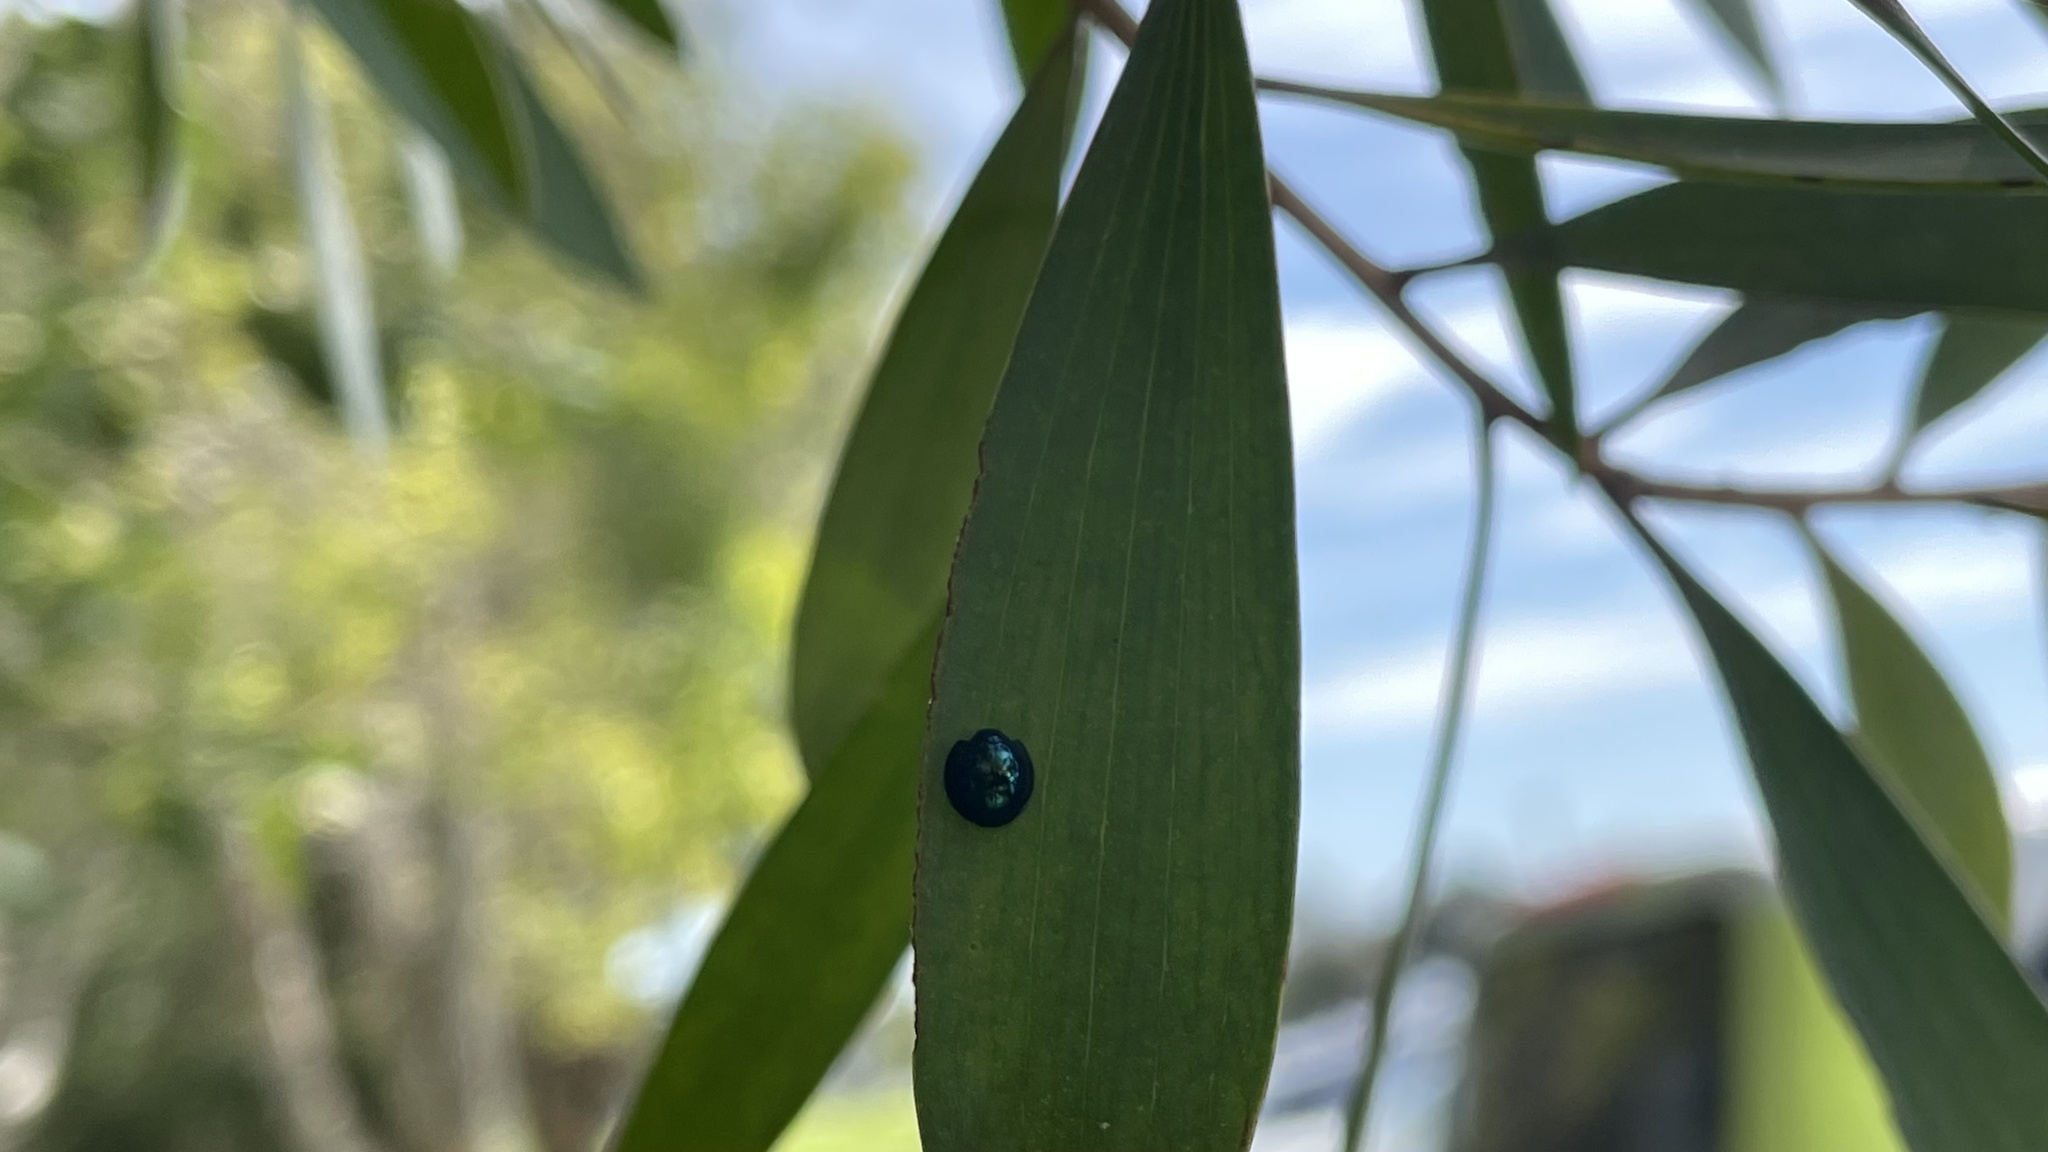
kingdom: Animalia
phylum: Arthropoda
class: Insecta
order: Coleoptera
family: Coccinellidae
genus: Halmus
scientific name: Halmus chalybeus
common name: Steel blue ladybird beetle
